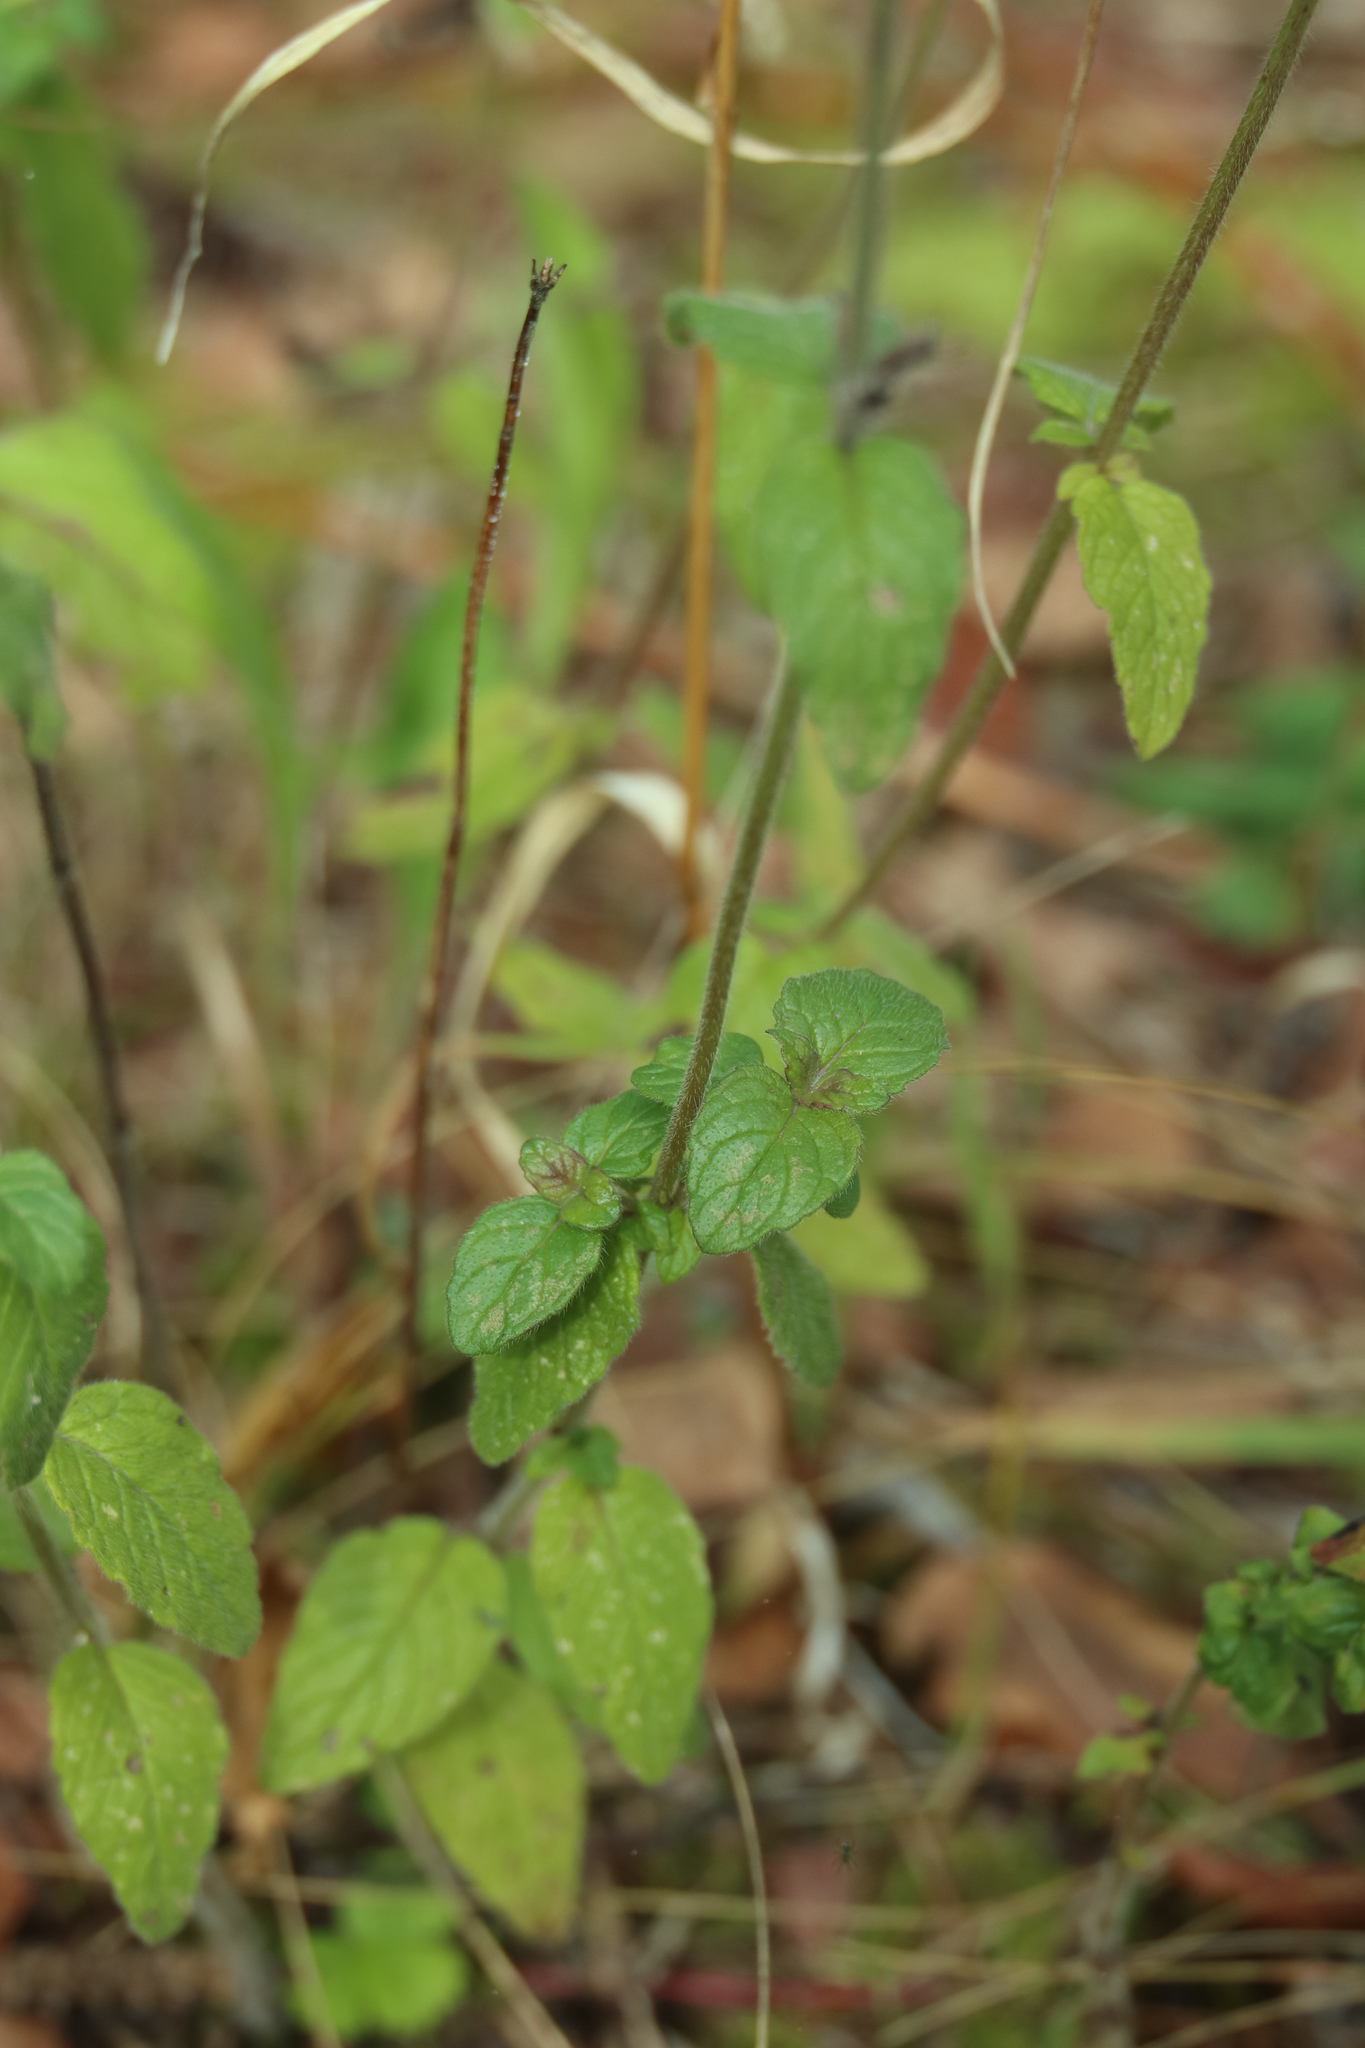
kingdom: Plantae
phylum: Tracheophyta
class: Magnoliopsida
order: Lamiales
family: Lamiaceae
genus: Clinopodium
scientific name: Clinopodium vulgare
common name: Wild basil
